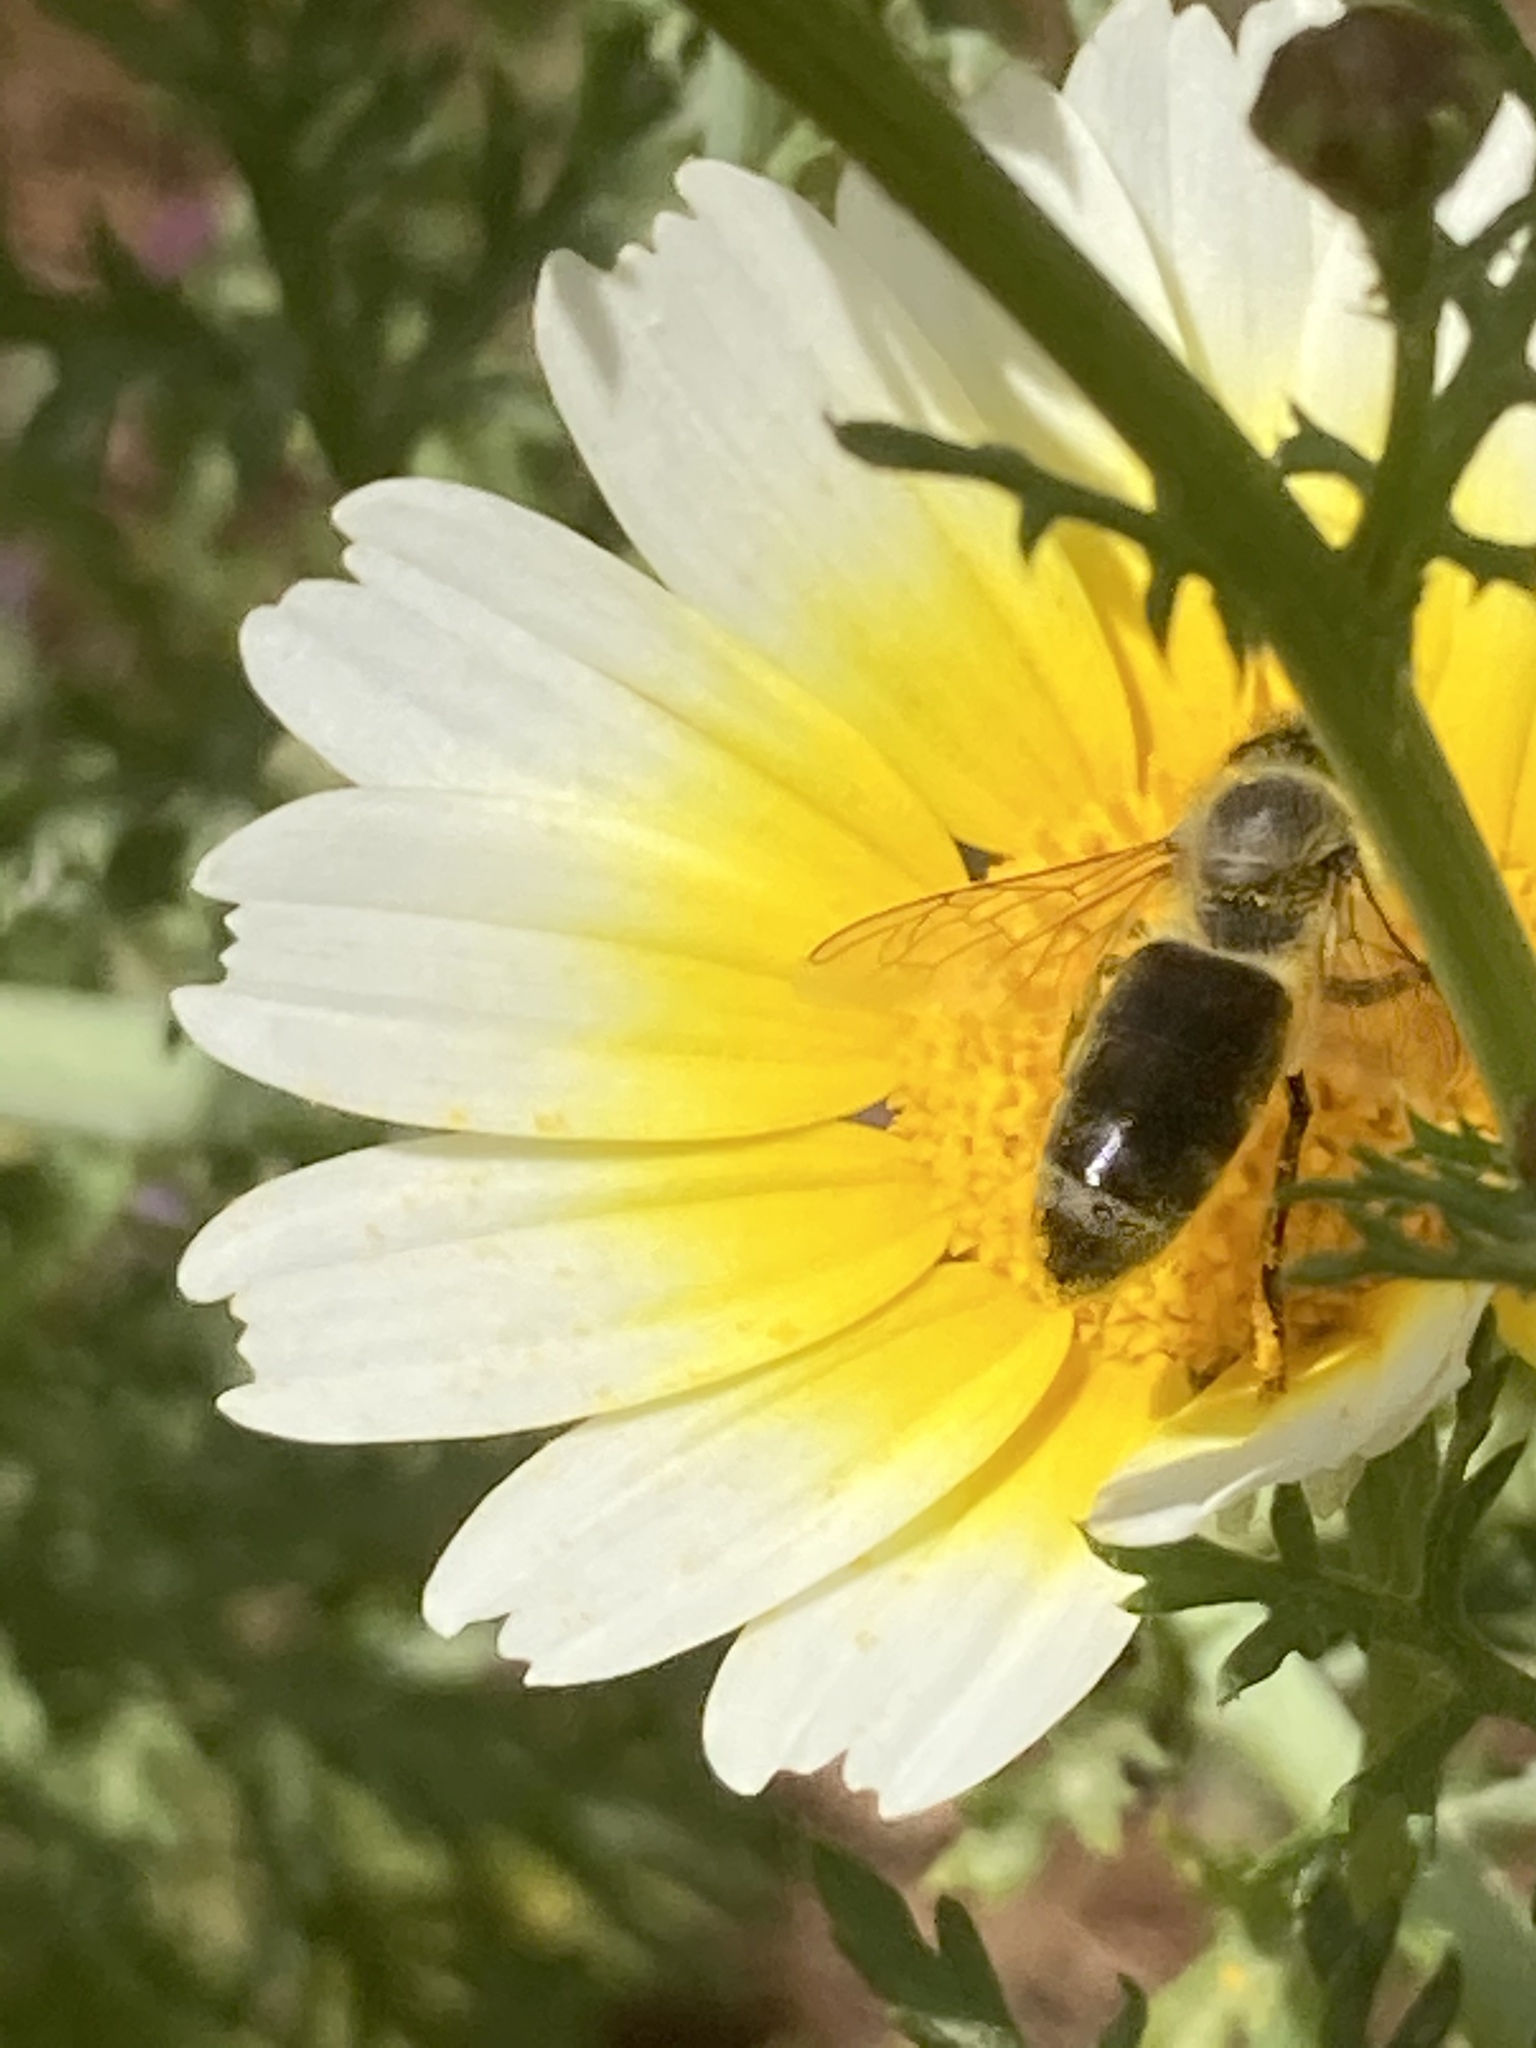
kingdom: Animalia
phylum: Arthropoda
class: Insecta
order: Hymenoptera
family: Apidae
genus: Apis
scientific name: Apis mellifera
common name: Honey bee
